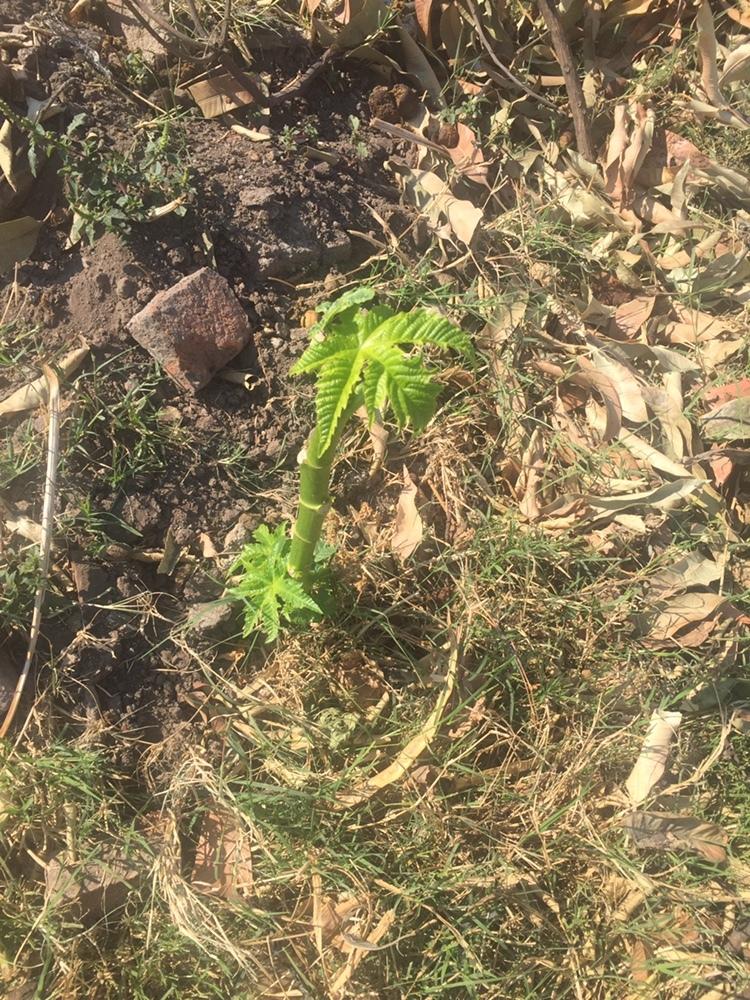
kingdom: Plantae
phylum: Tracheophyta
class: Magnoliopsida
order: Malpighiales
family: Euphorbiaceae
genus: Ricinus
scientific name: Ricinus communis
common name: Castor-oil-plant
